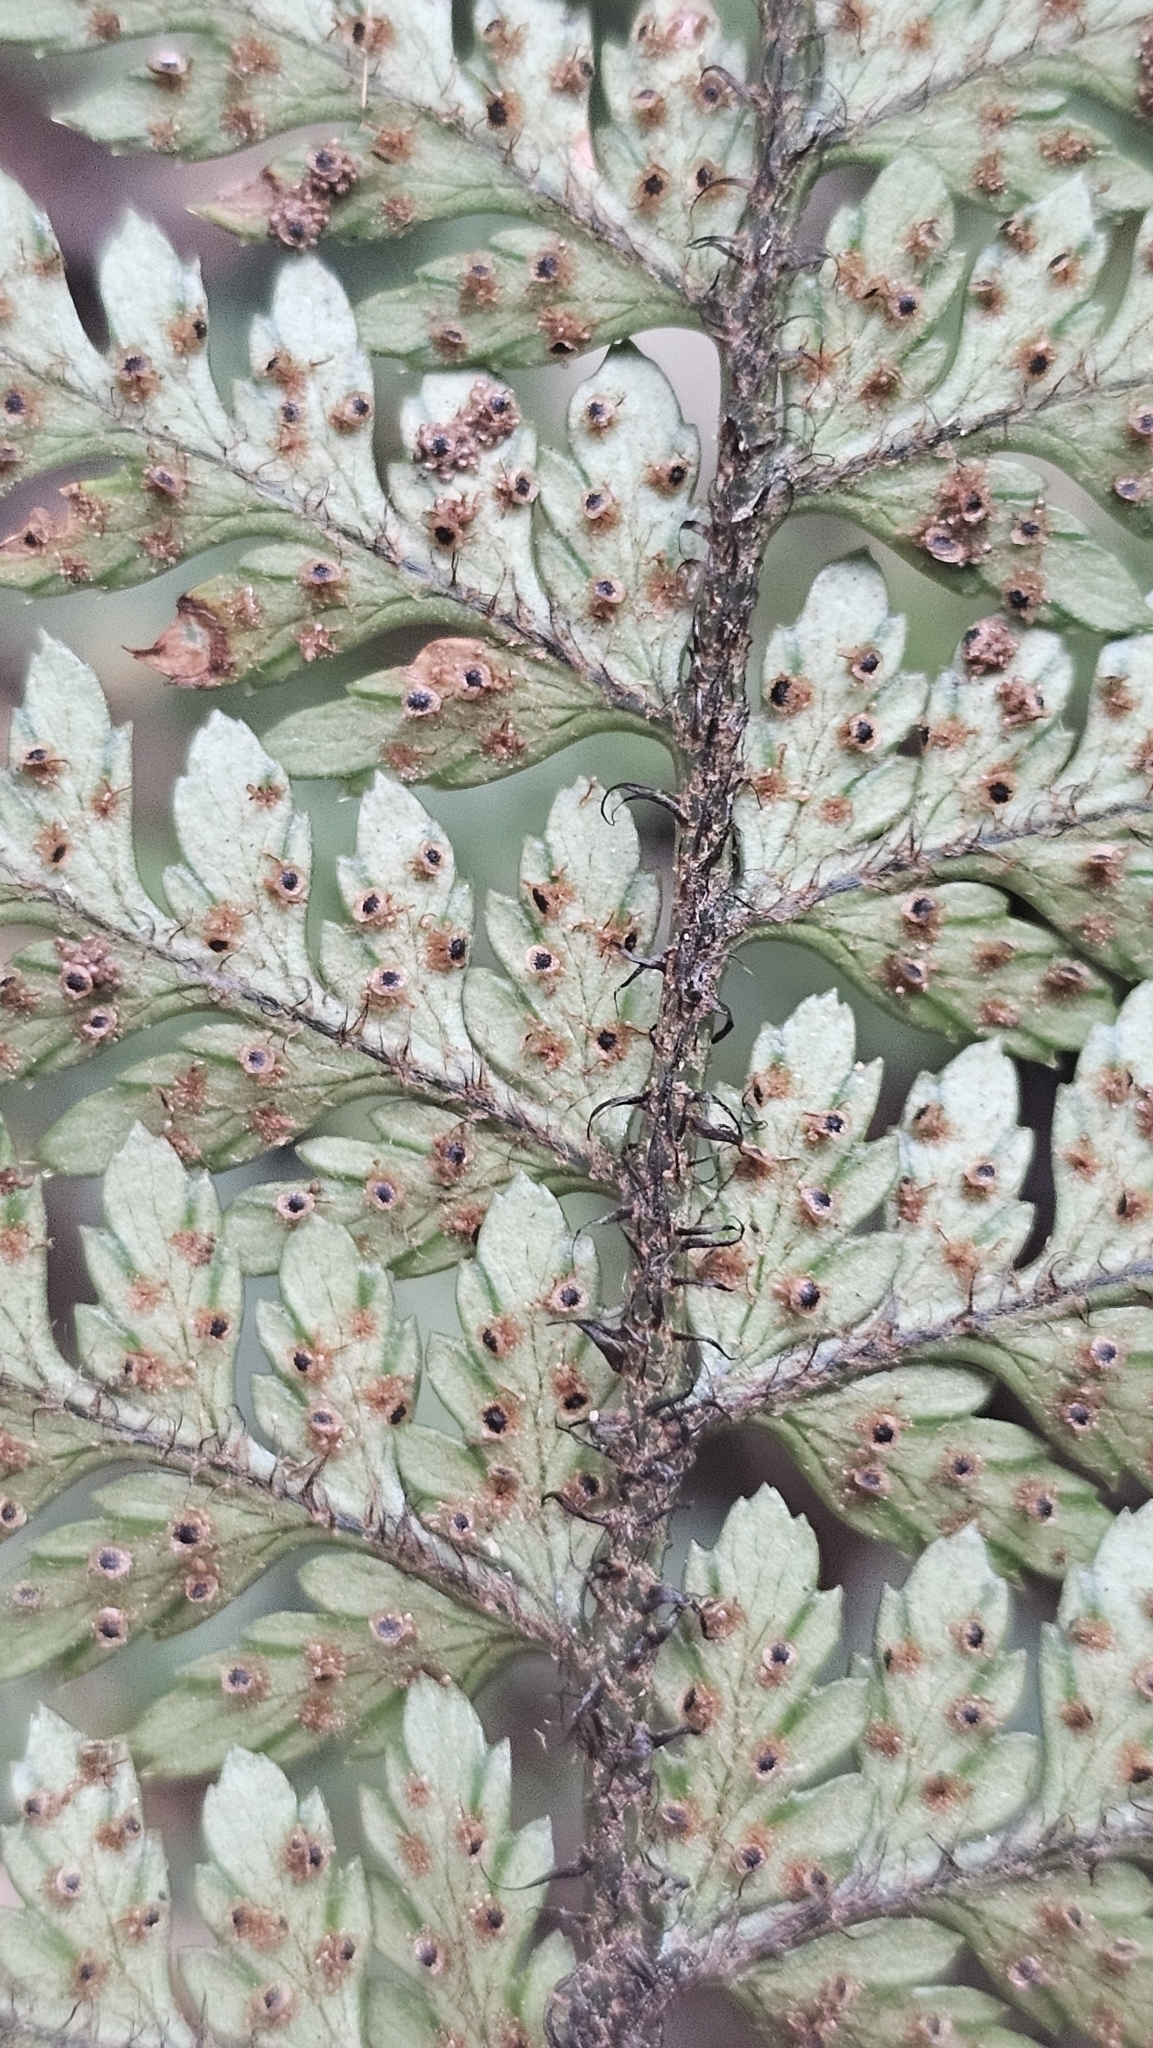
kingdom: Plantae
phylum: Tracheophyta
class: Polypodiopsida
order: Polypodiales
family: Dryopteridaceae
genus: Polystichum
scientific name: Polystichum neozelandicum
